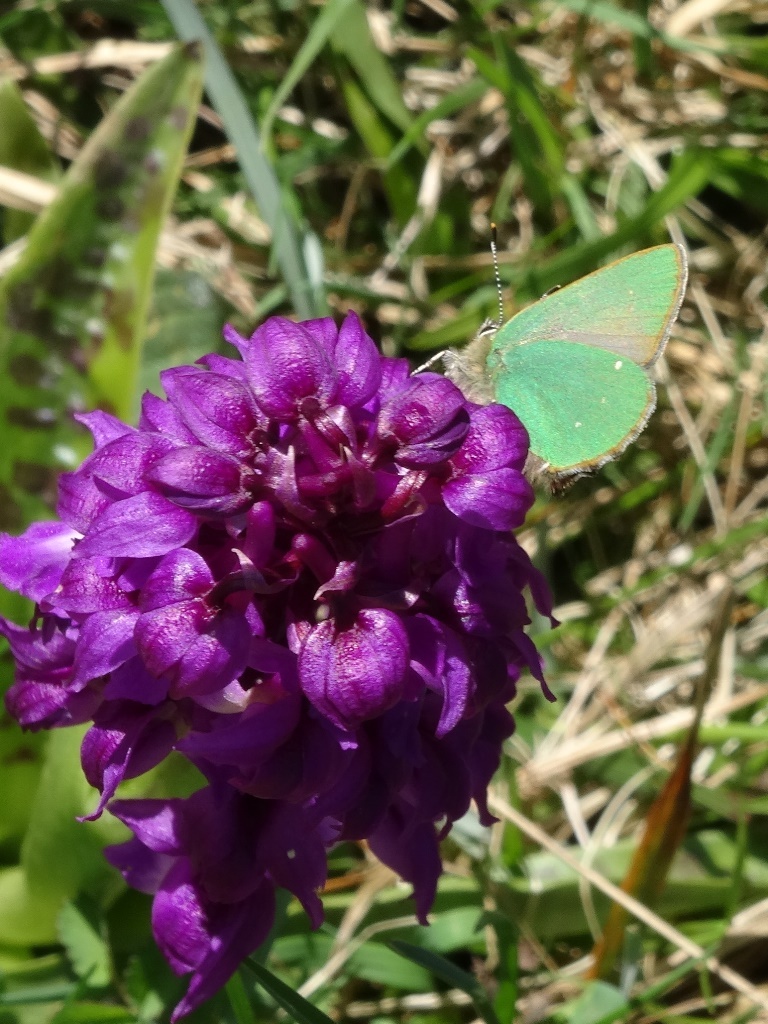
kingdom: Animalia
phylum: Arthropoda
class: Insecta
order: Lepidoptera
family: Lycaenidae
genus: Callophrys
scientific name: Callophrys rubi
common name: Green hairstreak
